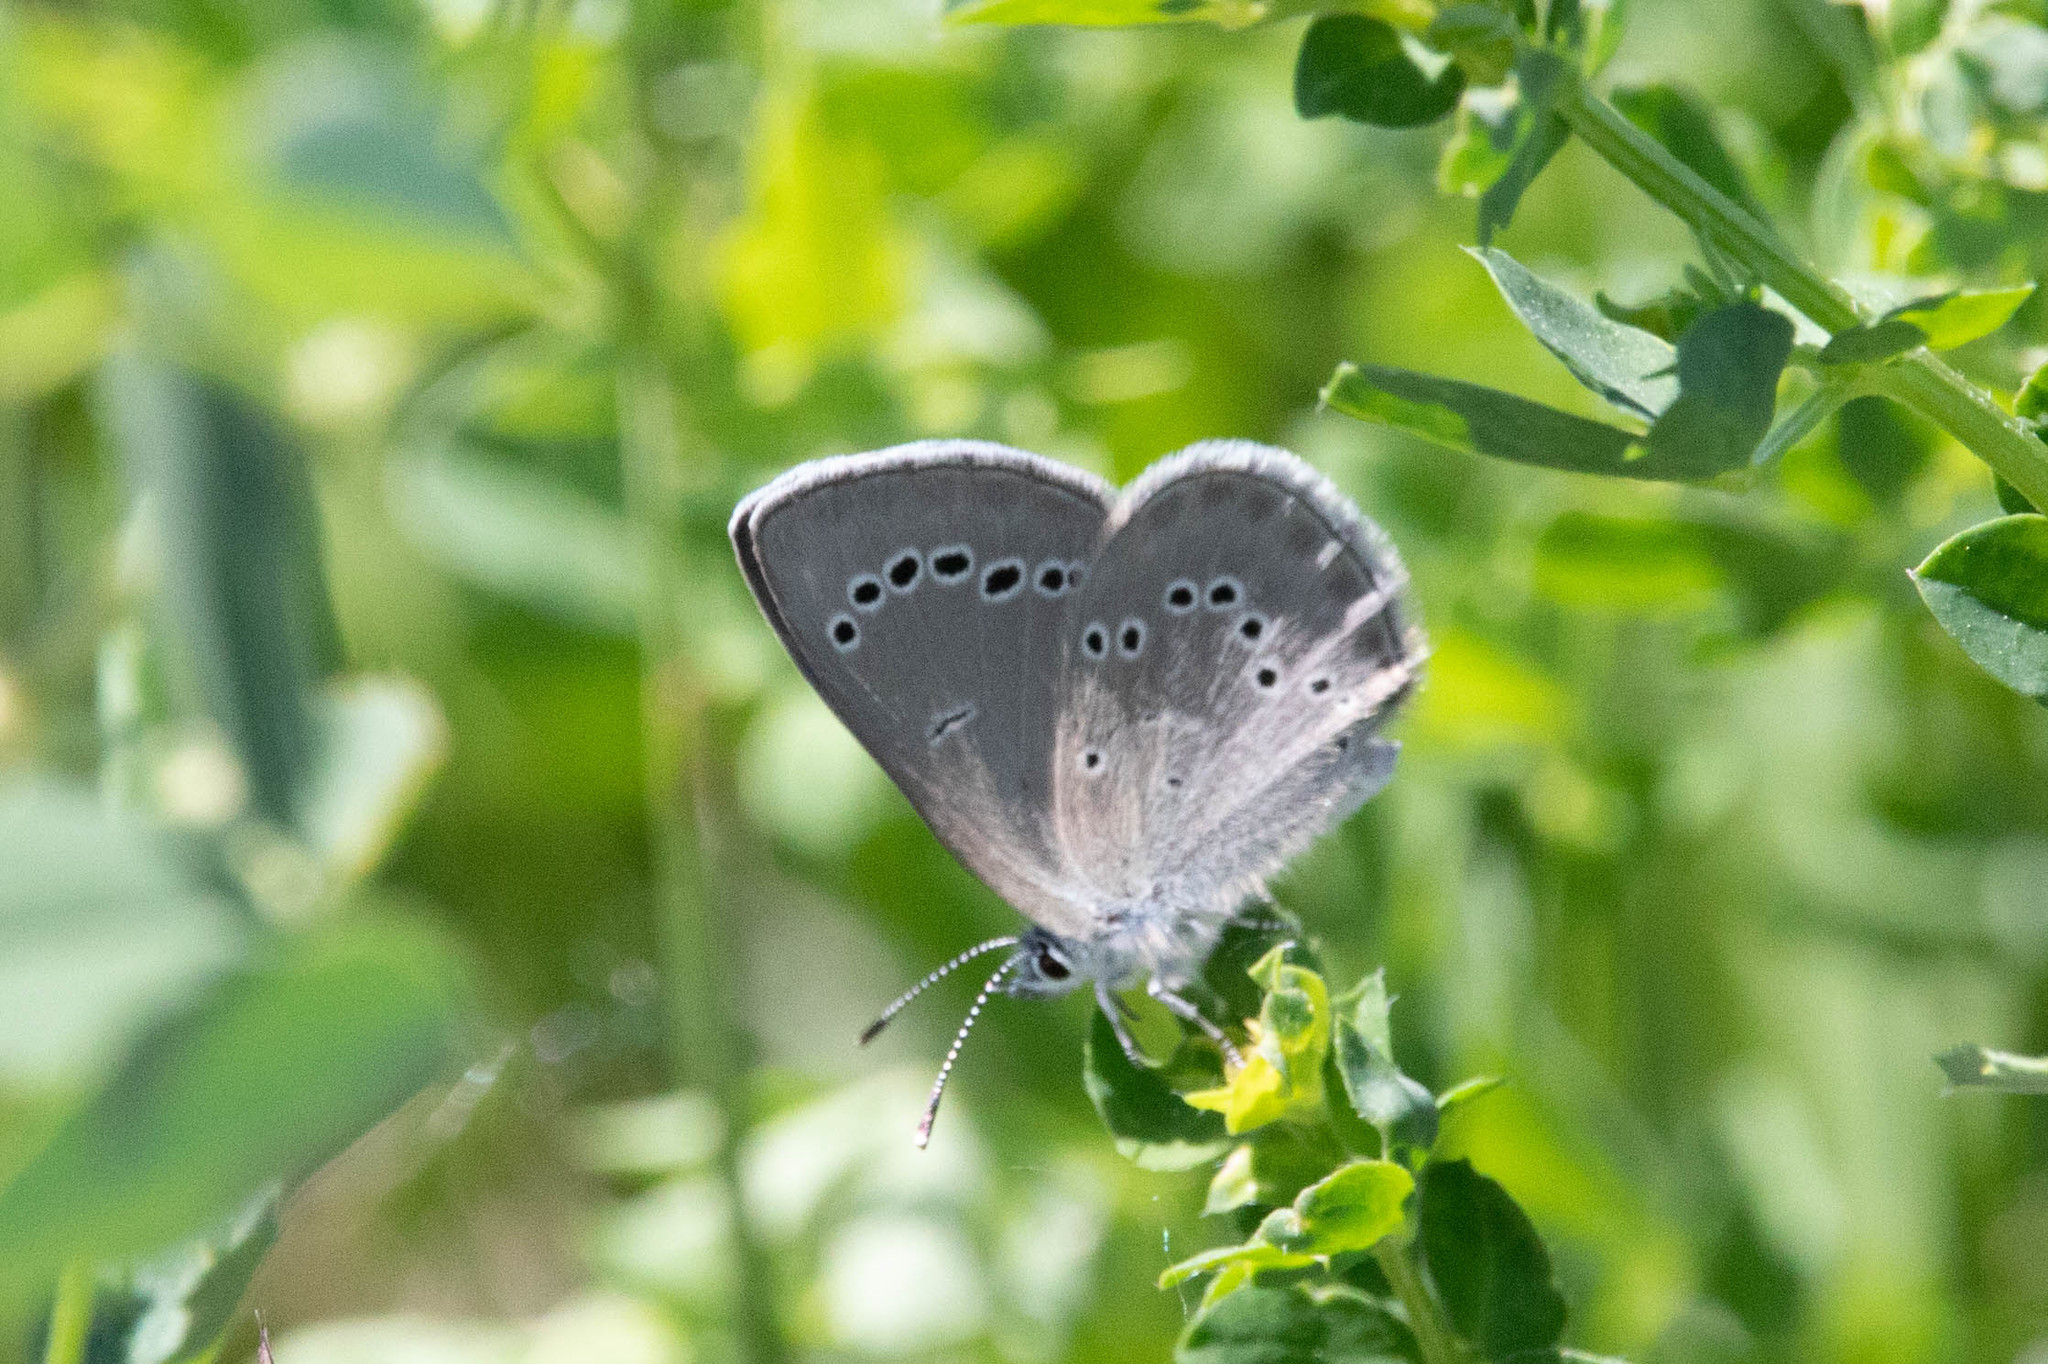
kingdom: Animalia
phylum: Arthropoda
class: Insecta
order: Lepidoptera
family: Lycaenidae
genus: Glaucopsyche
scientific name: Glaucopsyche lygdamus
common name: Silvery blue
